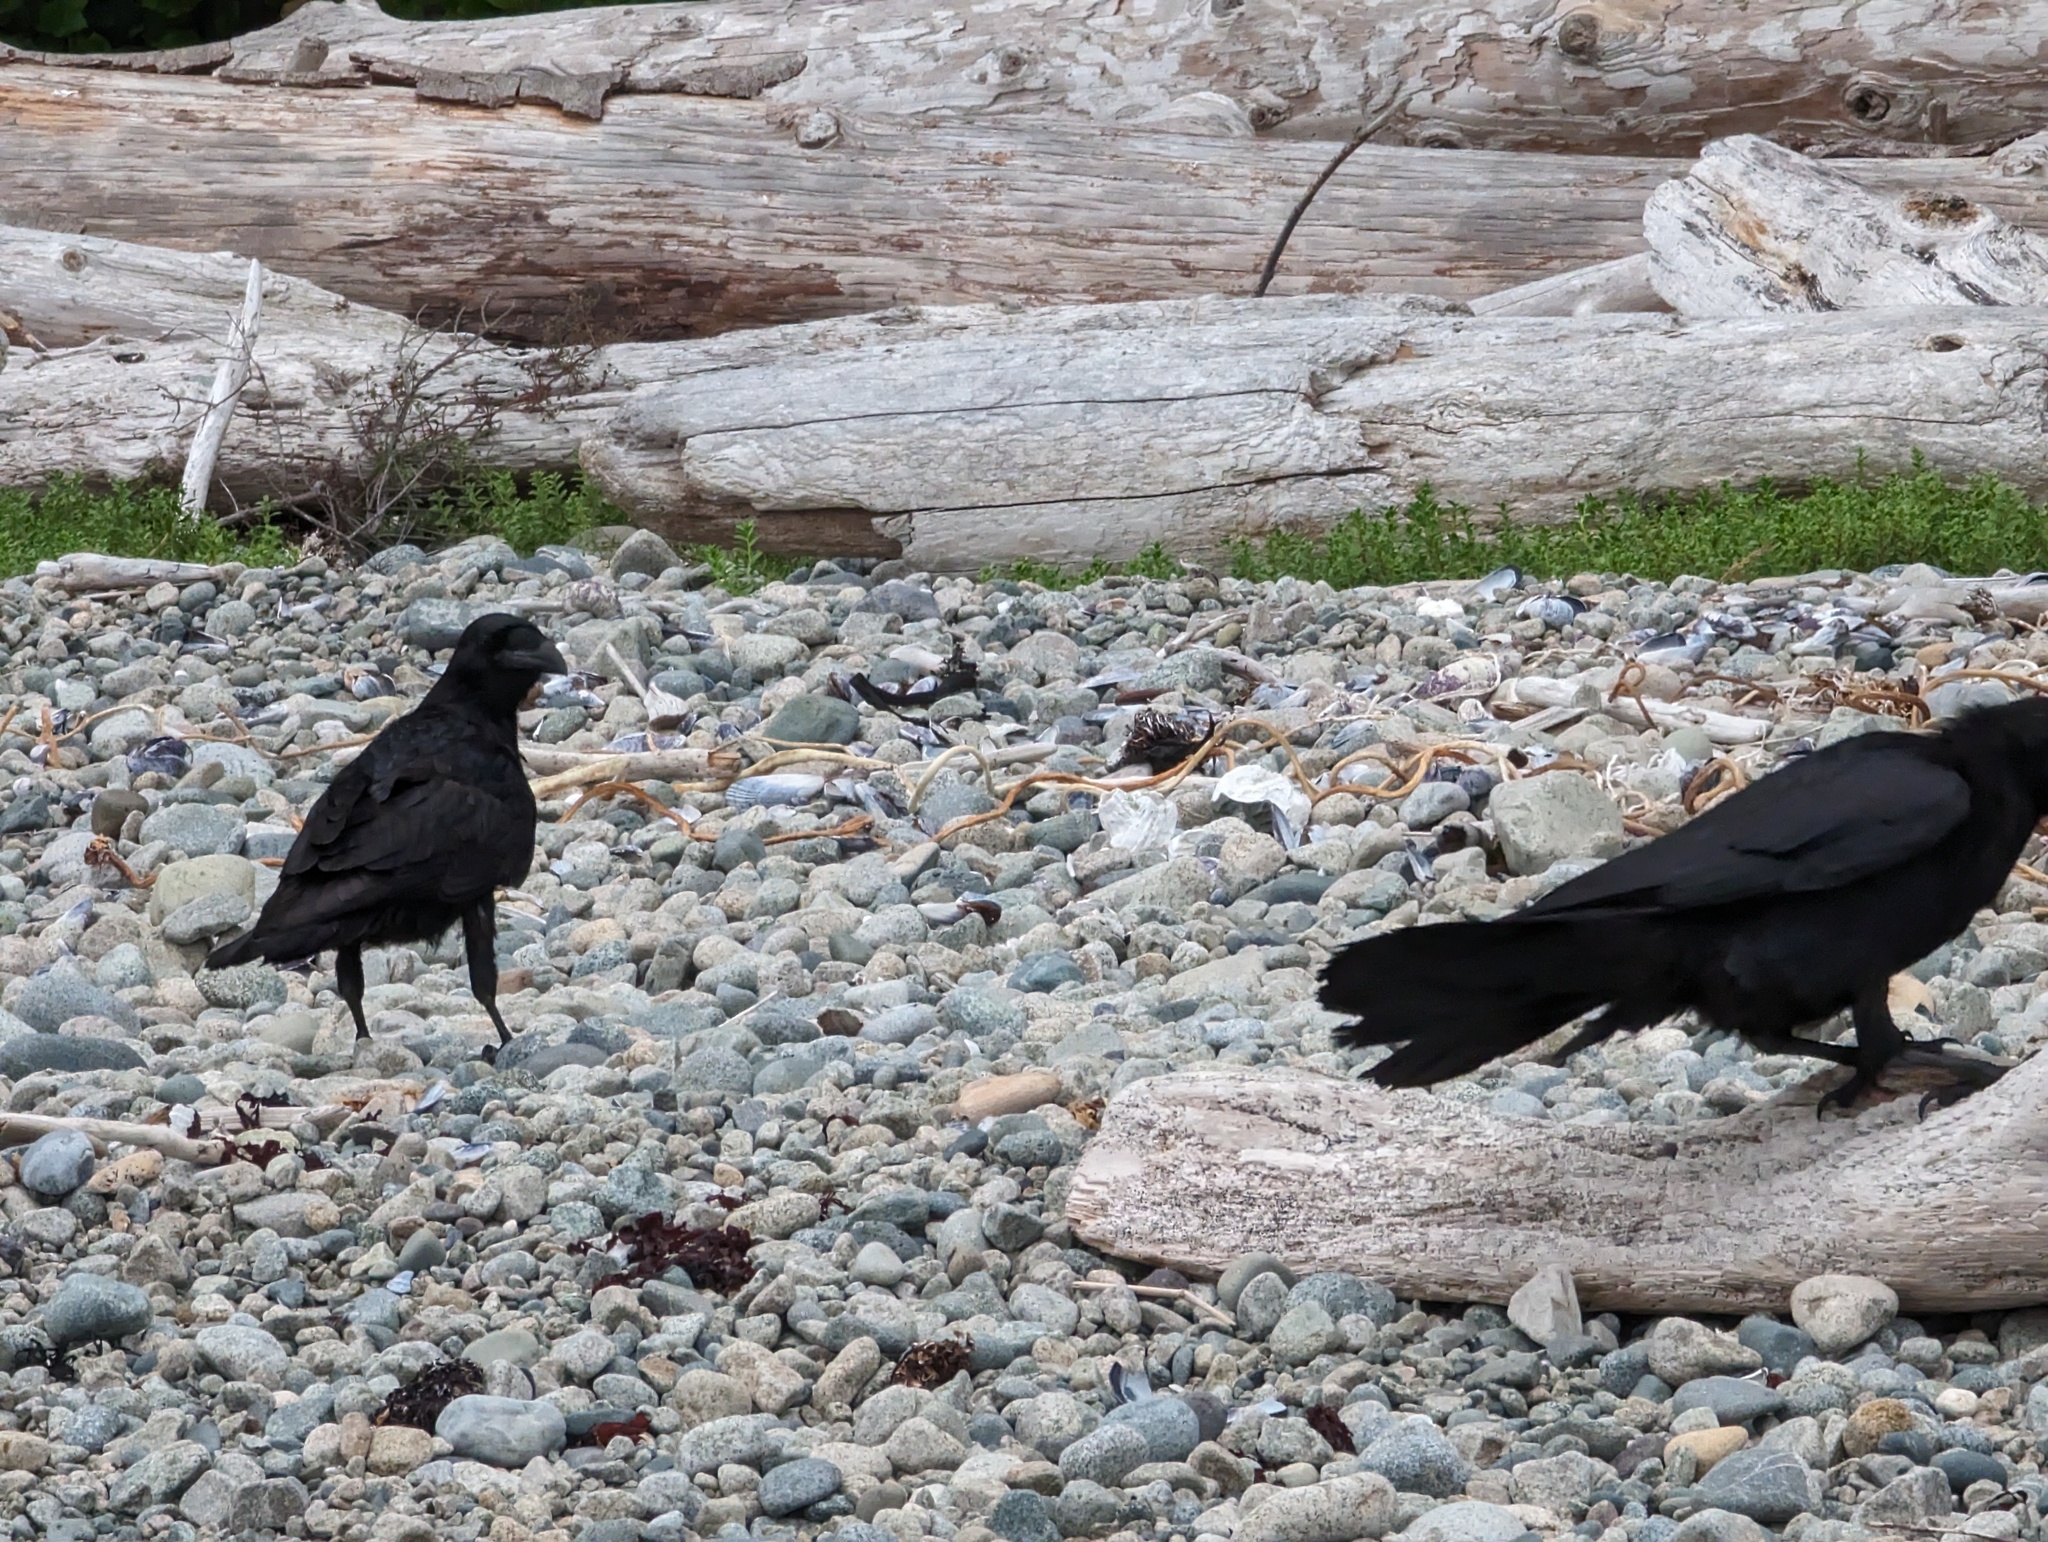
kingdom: Animalia
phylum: Chordata
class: Aves
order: Passeriformes
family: Corvidae
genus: Corvus
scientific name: Corvus corax
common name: Common raven
